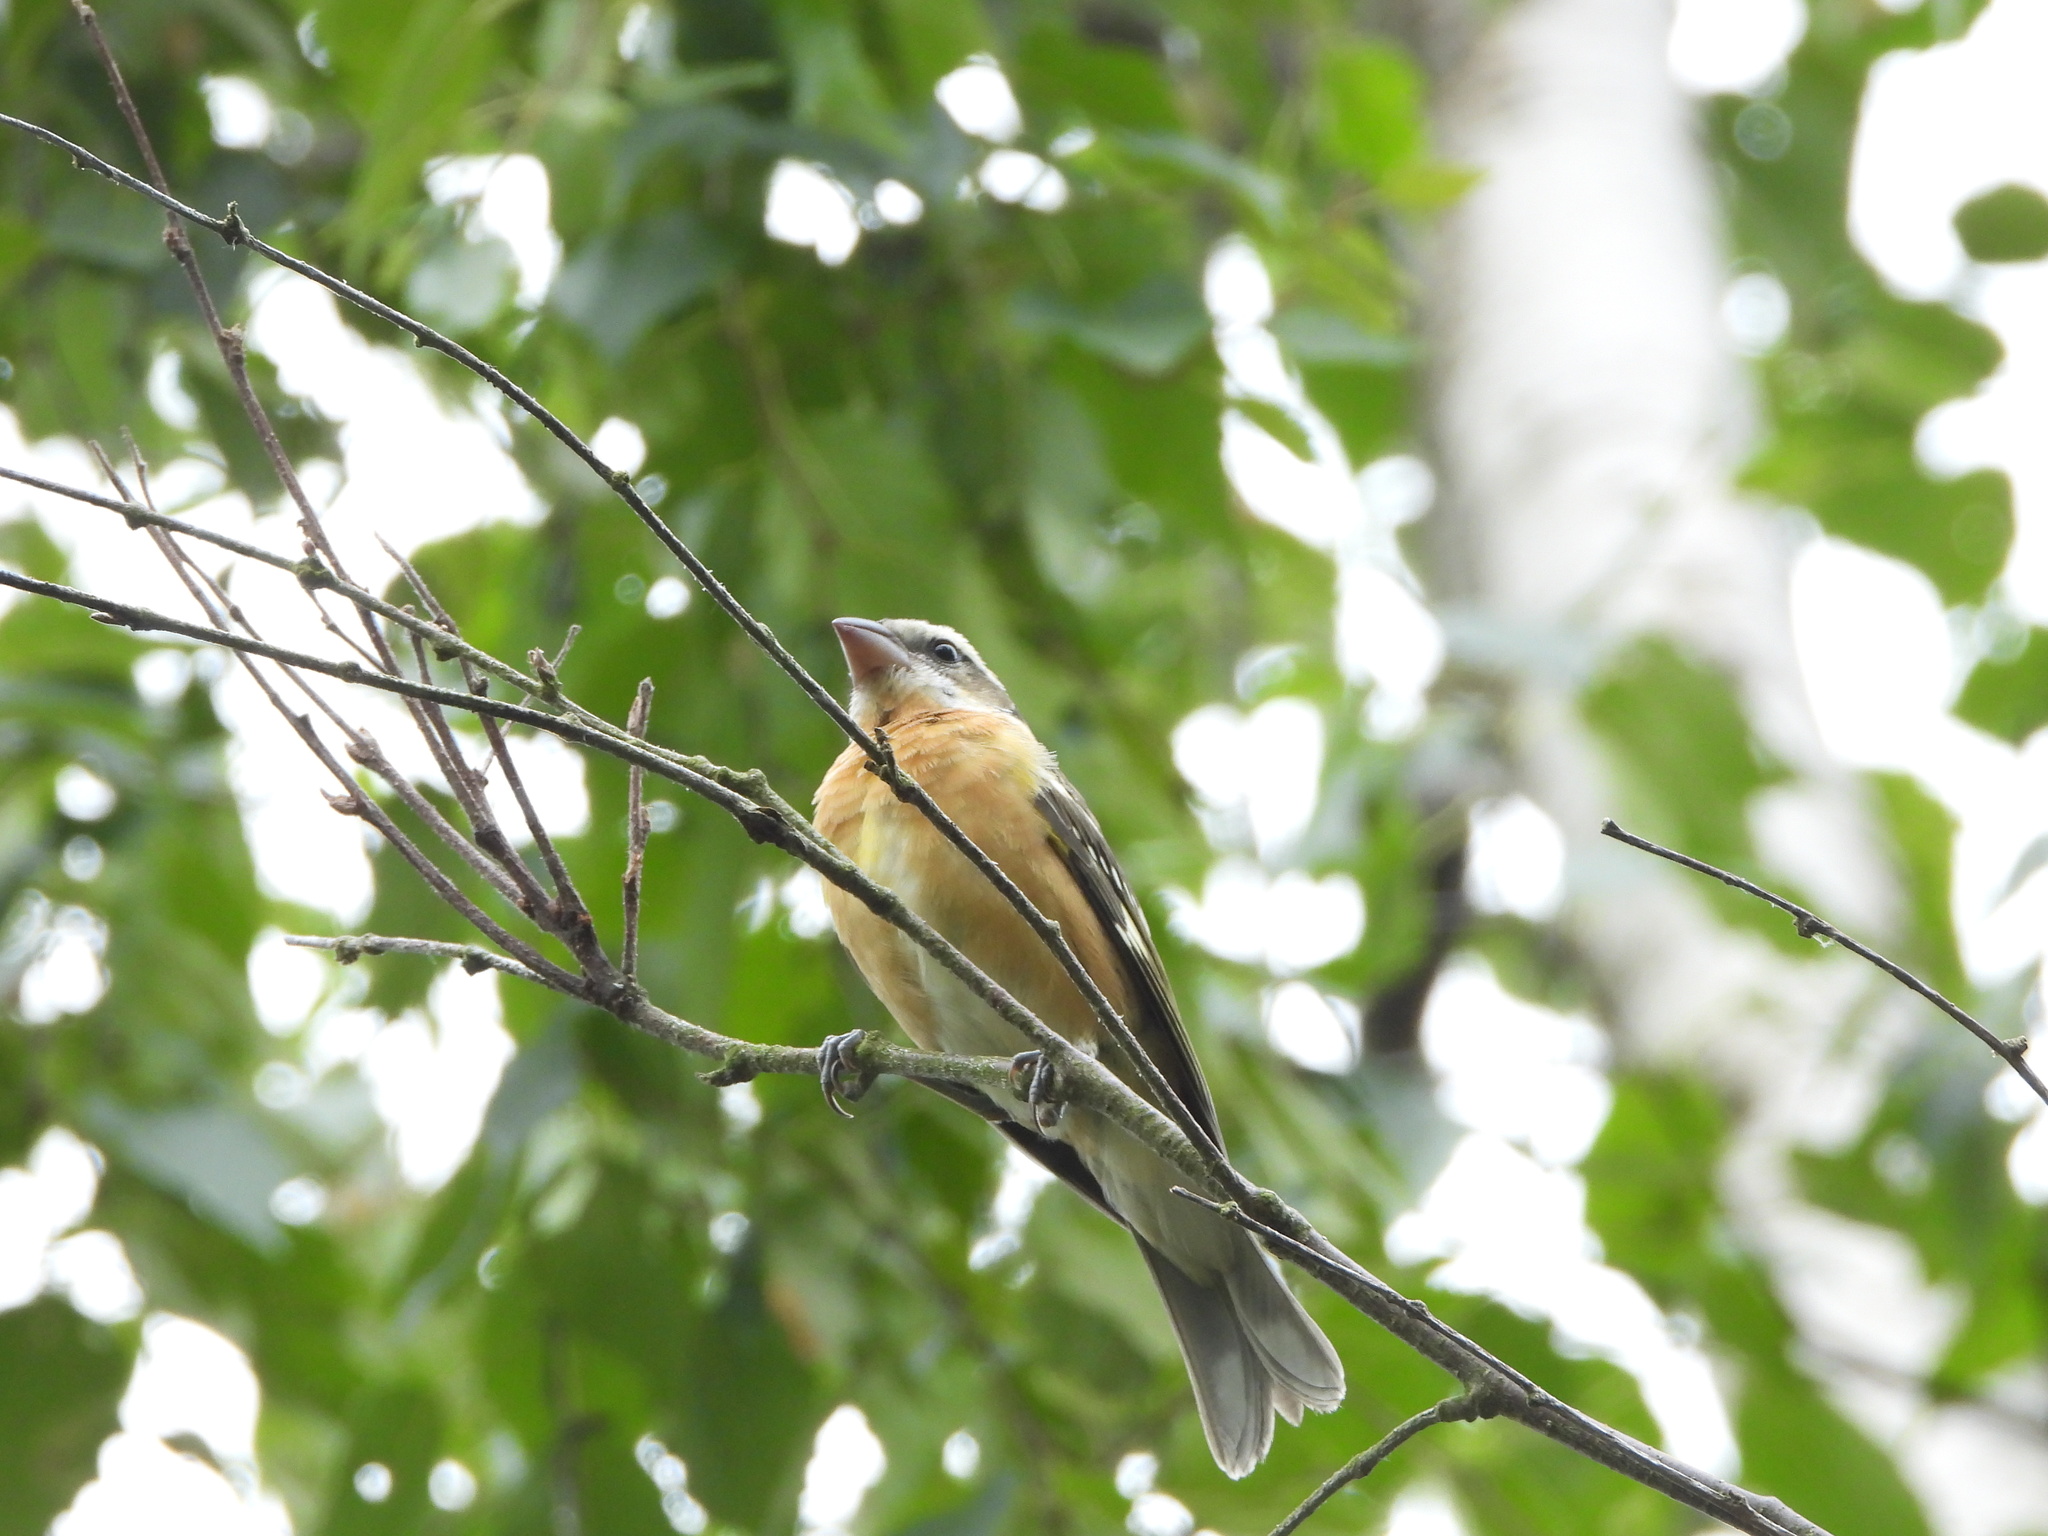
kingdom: Animalia
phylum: Chordata
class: Aves
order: Passeriformes
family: Cardinalidae
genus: Pheucticus
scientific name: Pheucticus melanocephalus
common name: Black-headed grosbeak
